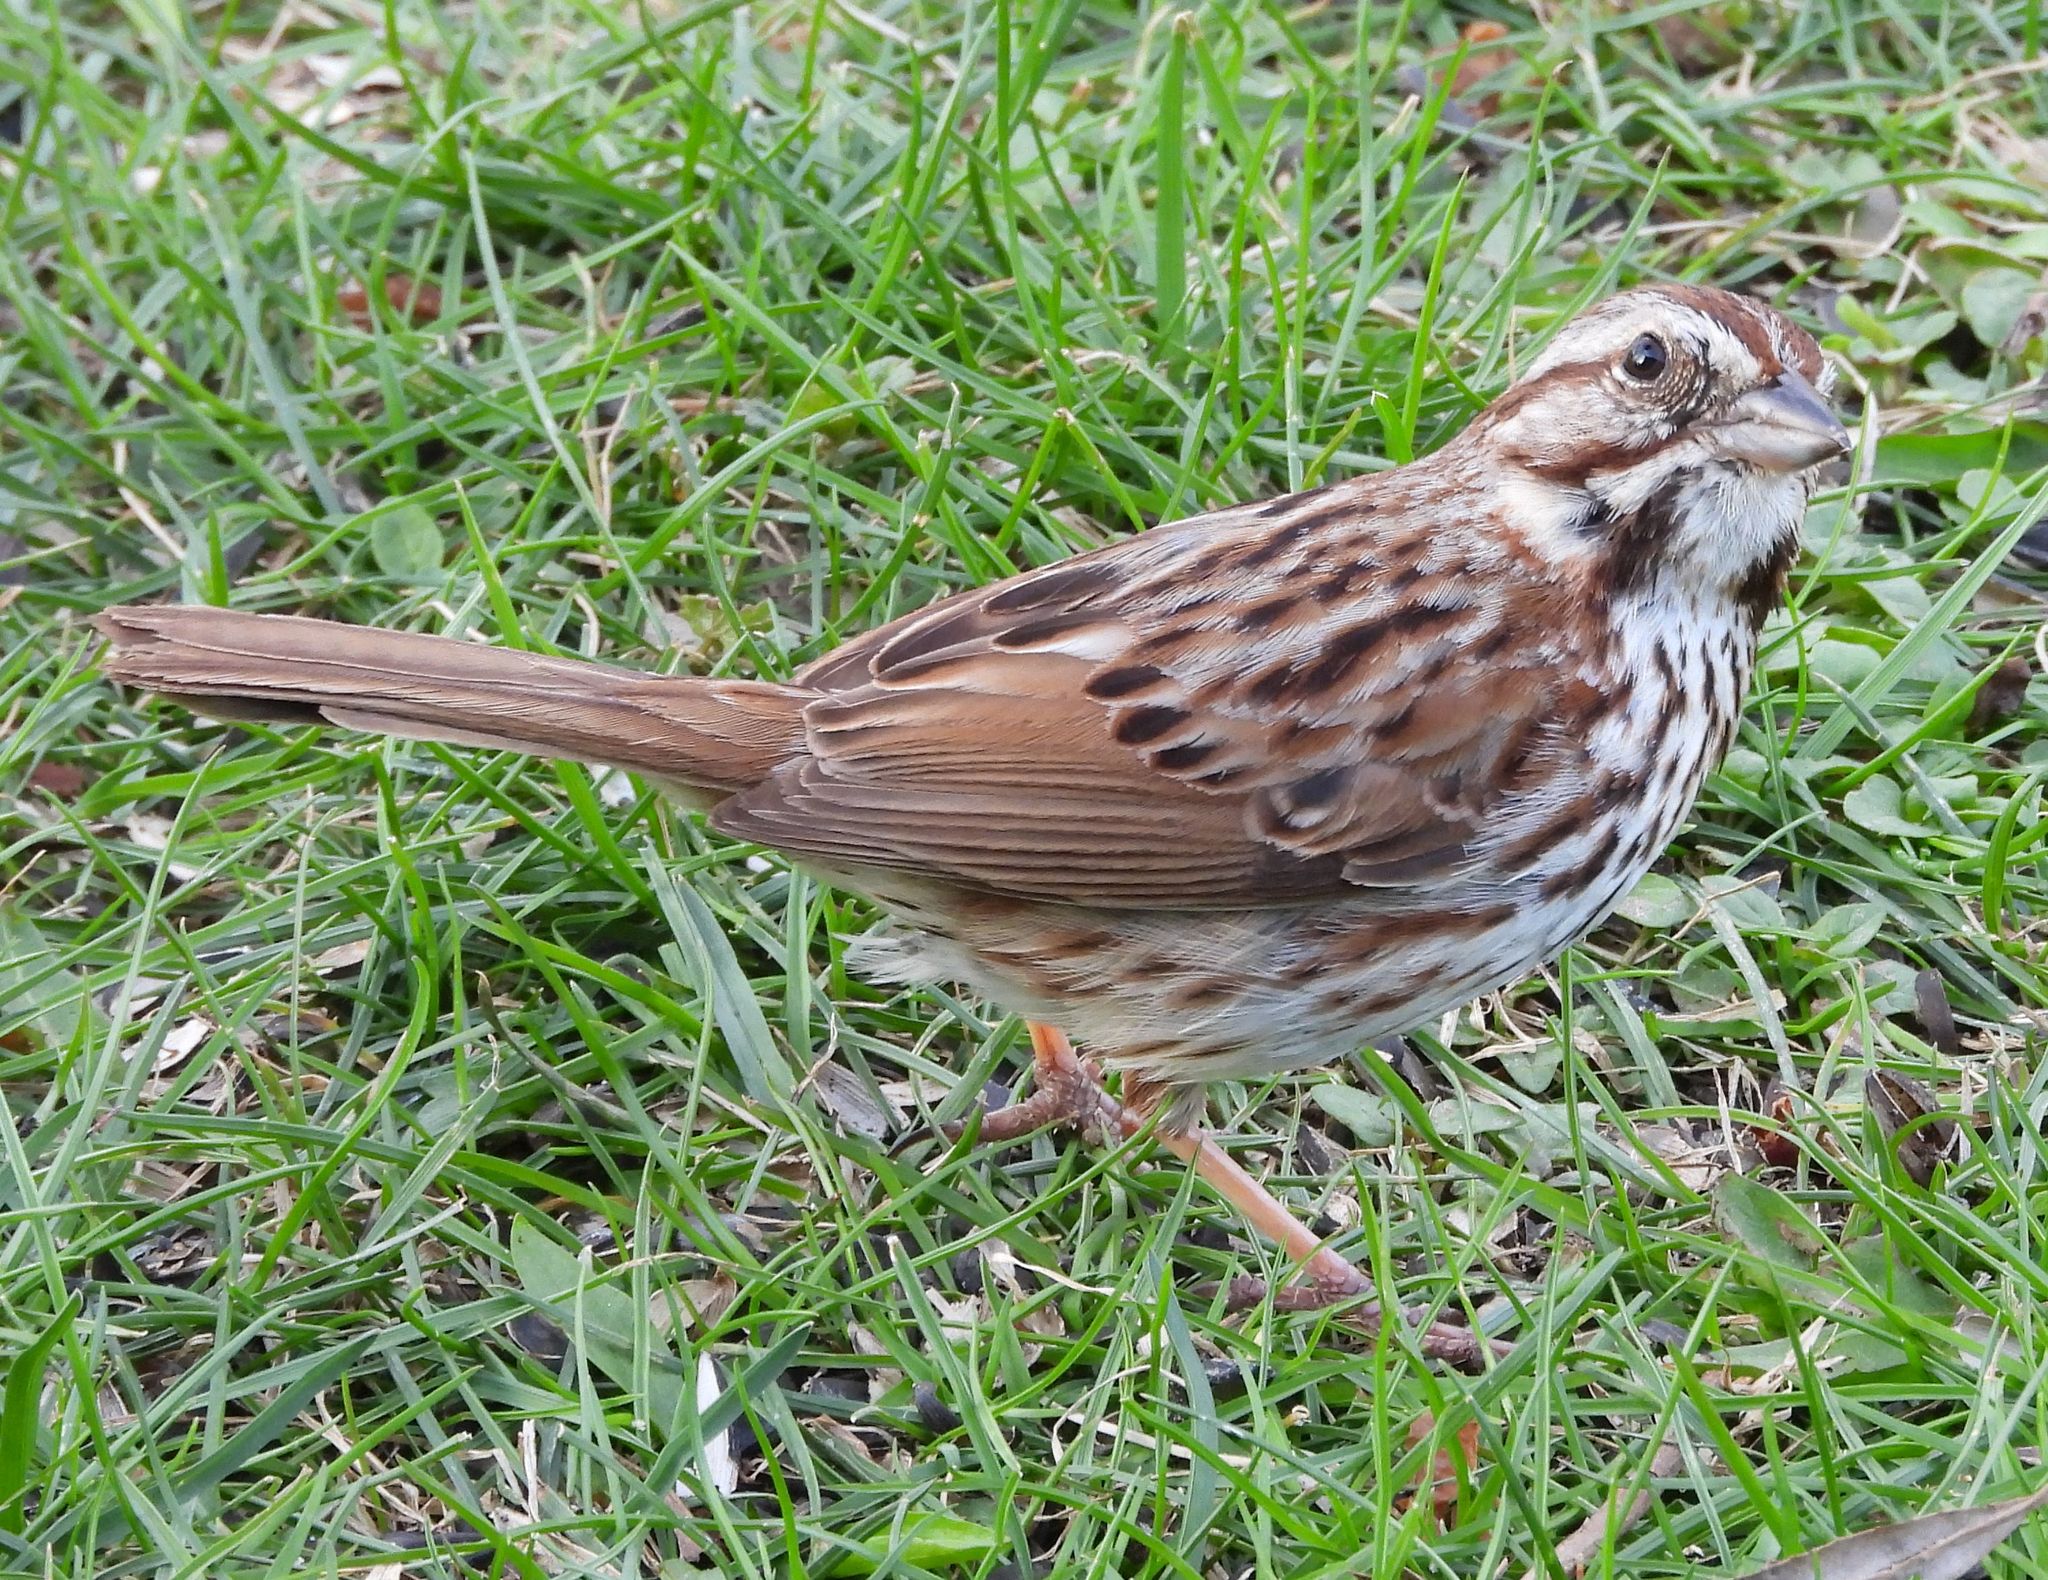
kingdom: Animalia
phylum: Chordata
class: Aves
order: Passeriformes
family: Passerellidae
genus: Melospiza
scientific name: Melospiza melodia
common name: Song sparrow
